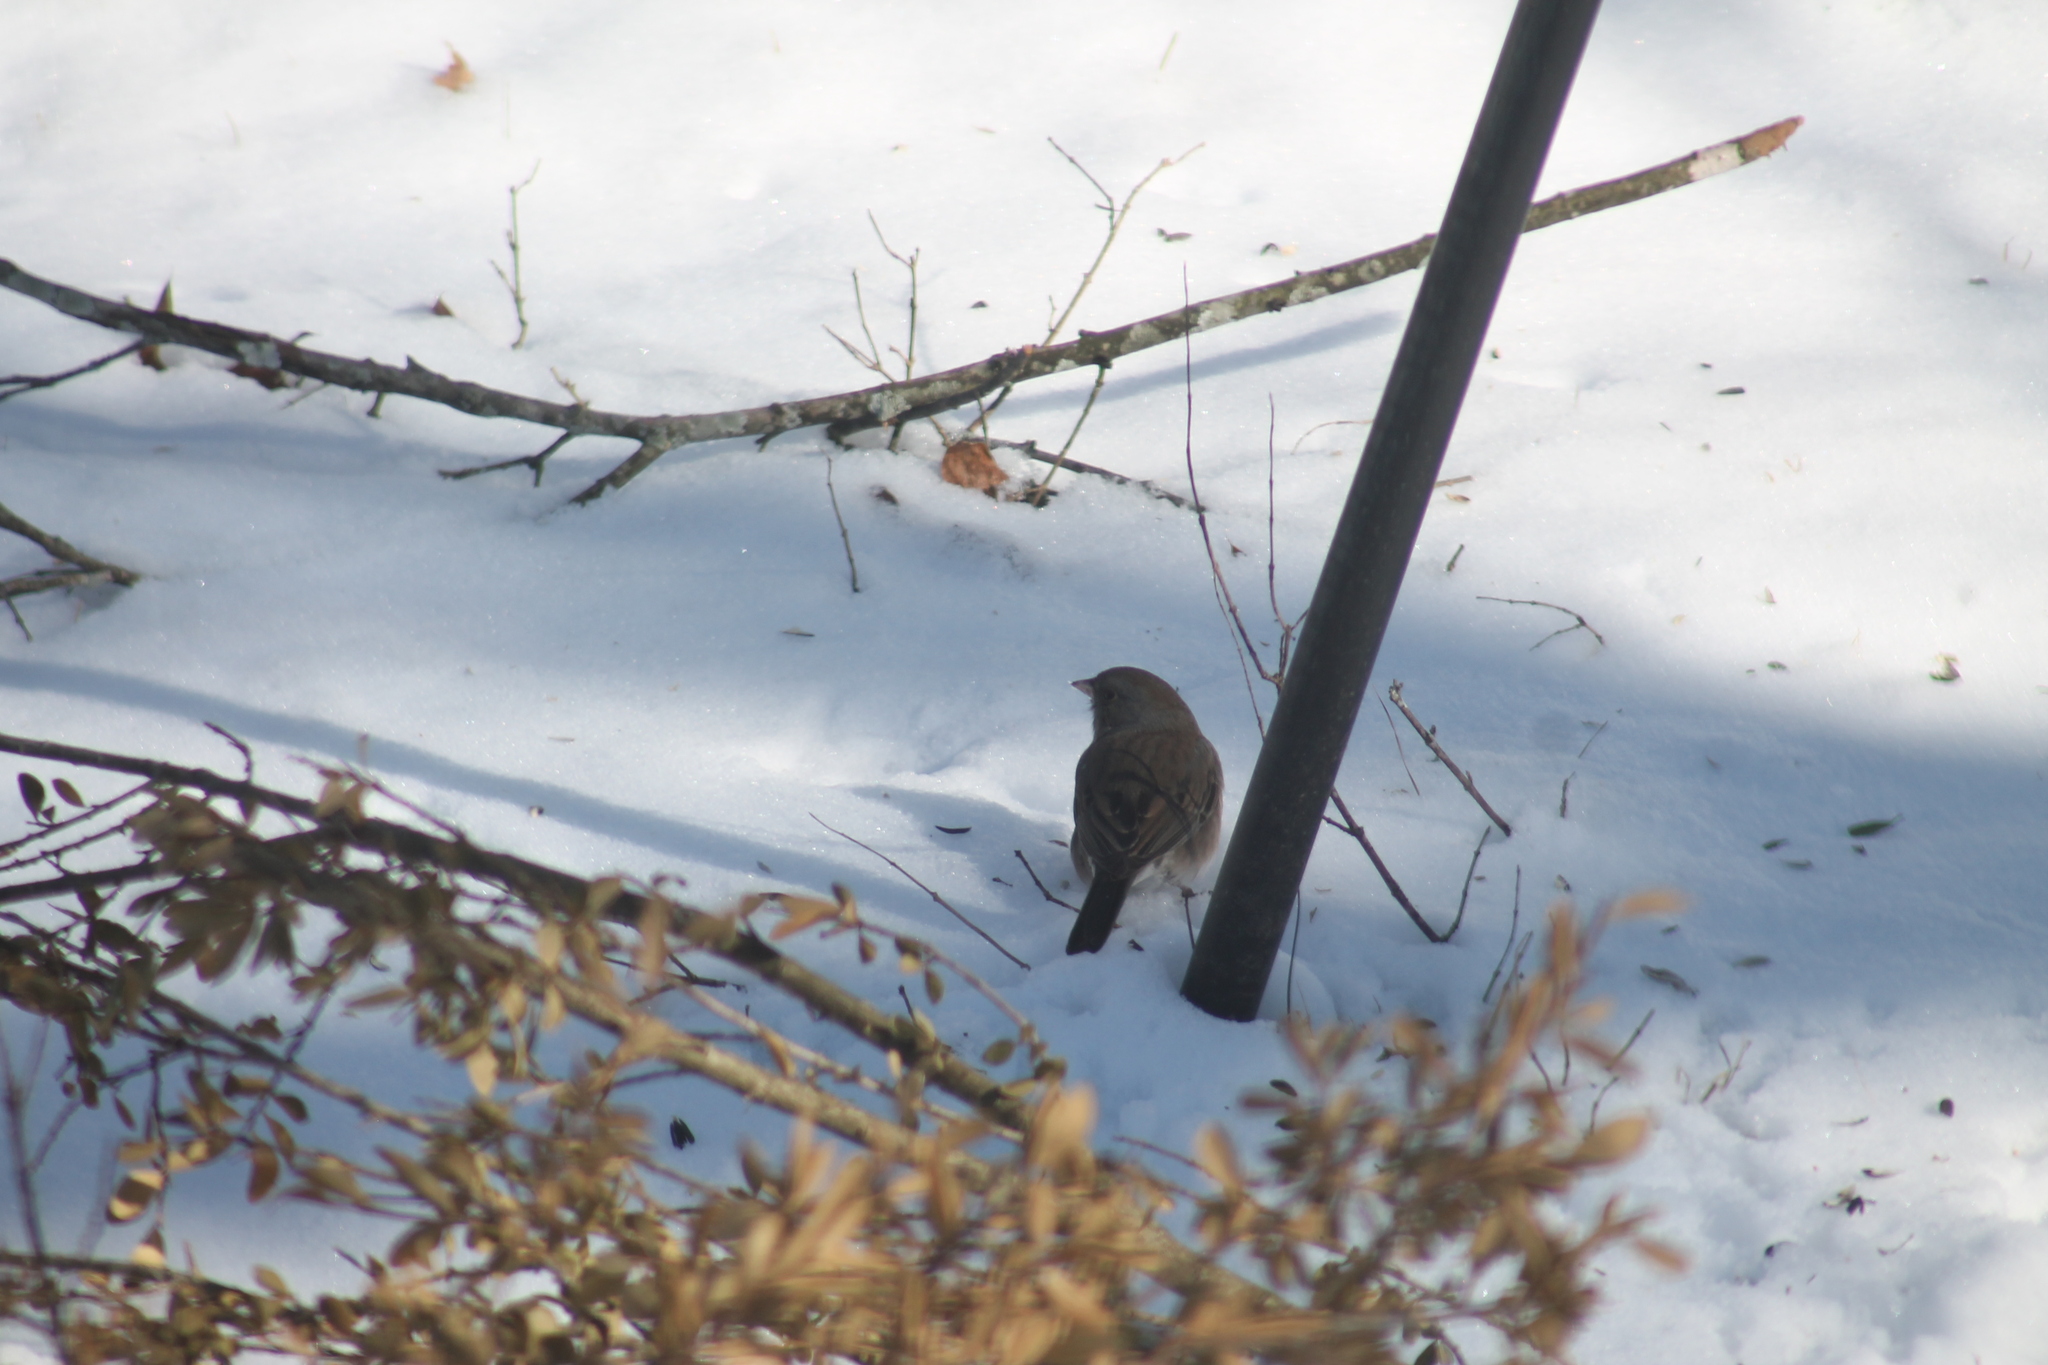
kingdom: Animalia
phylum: Chordata
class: Aves
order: Passeriformes
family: Passerellidae
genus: Junco
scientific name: Junco hyemalis
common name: Dark-eyed junco
